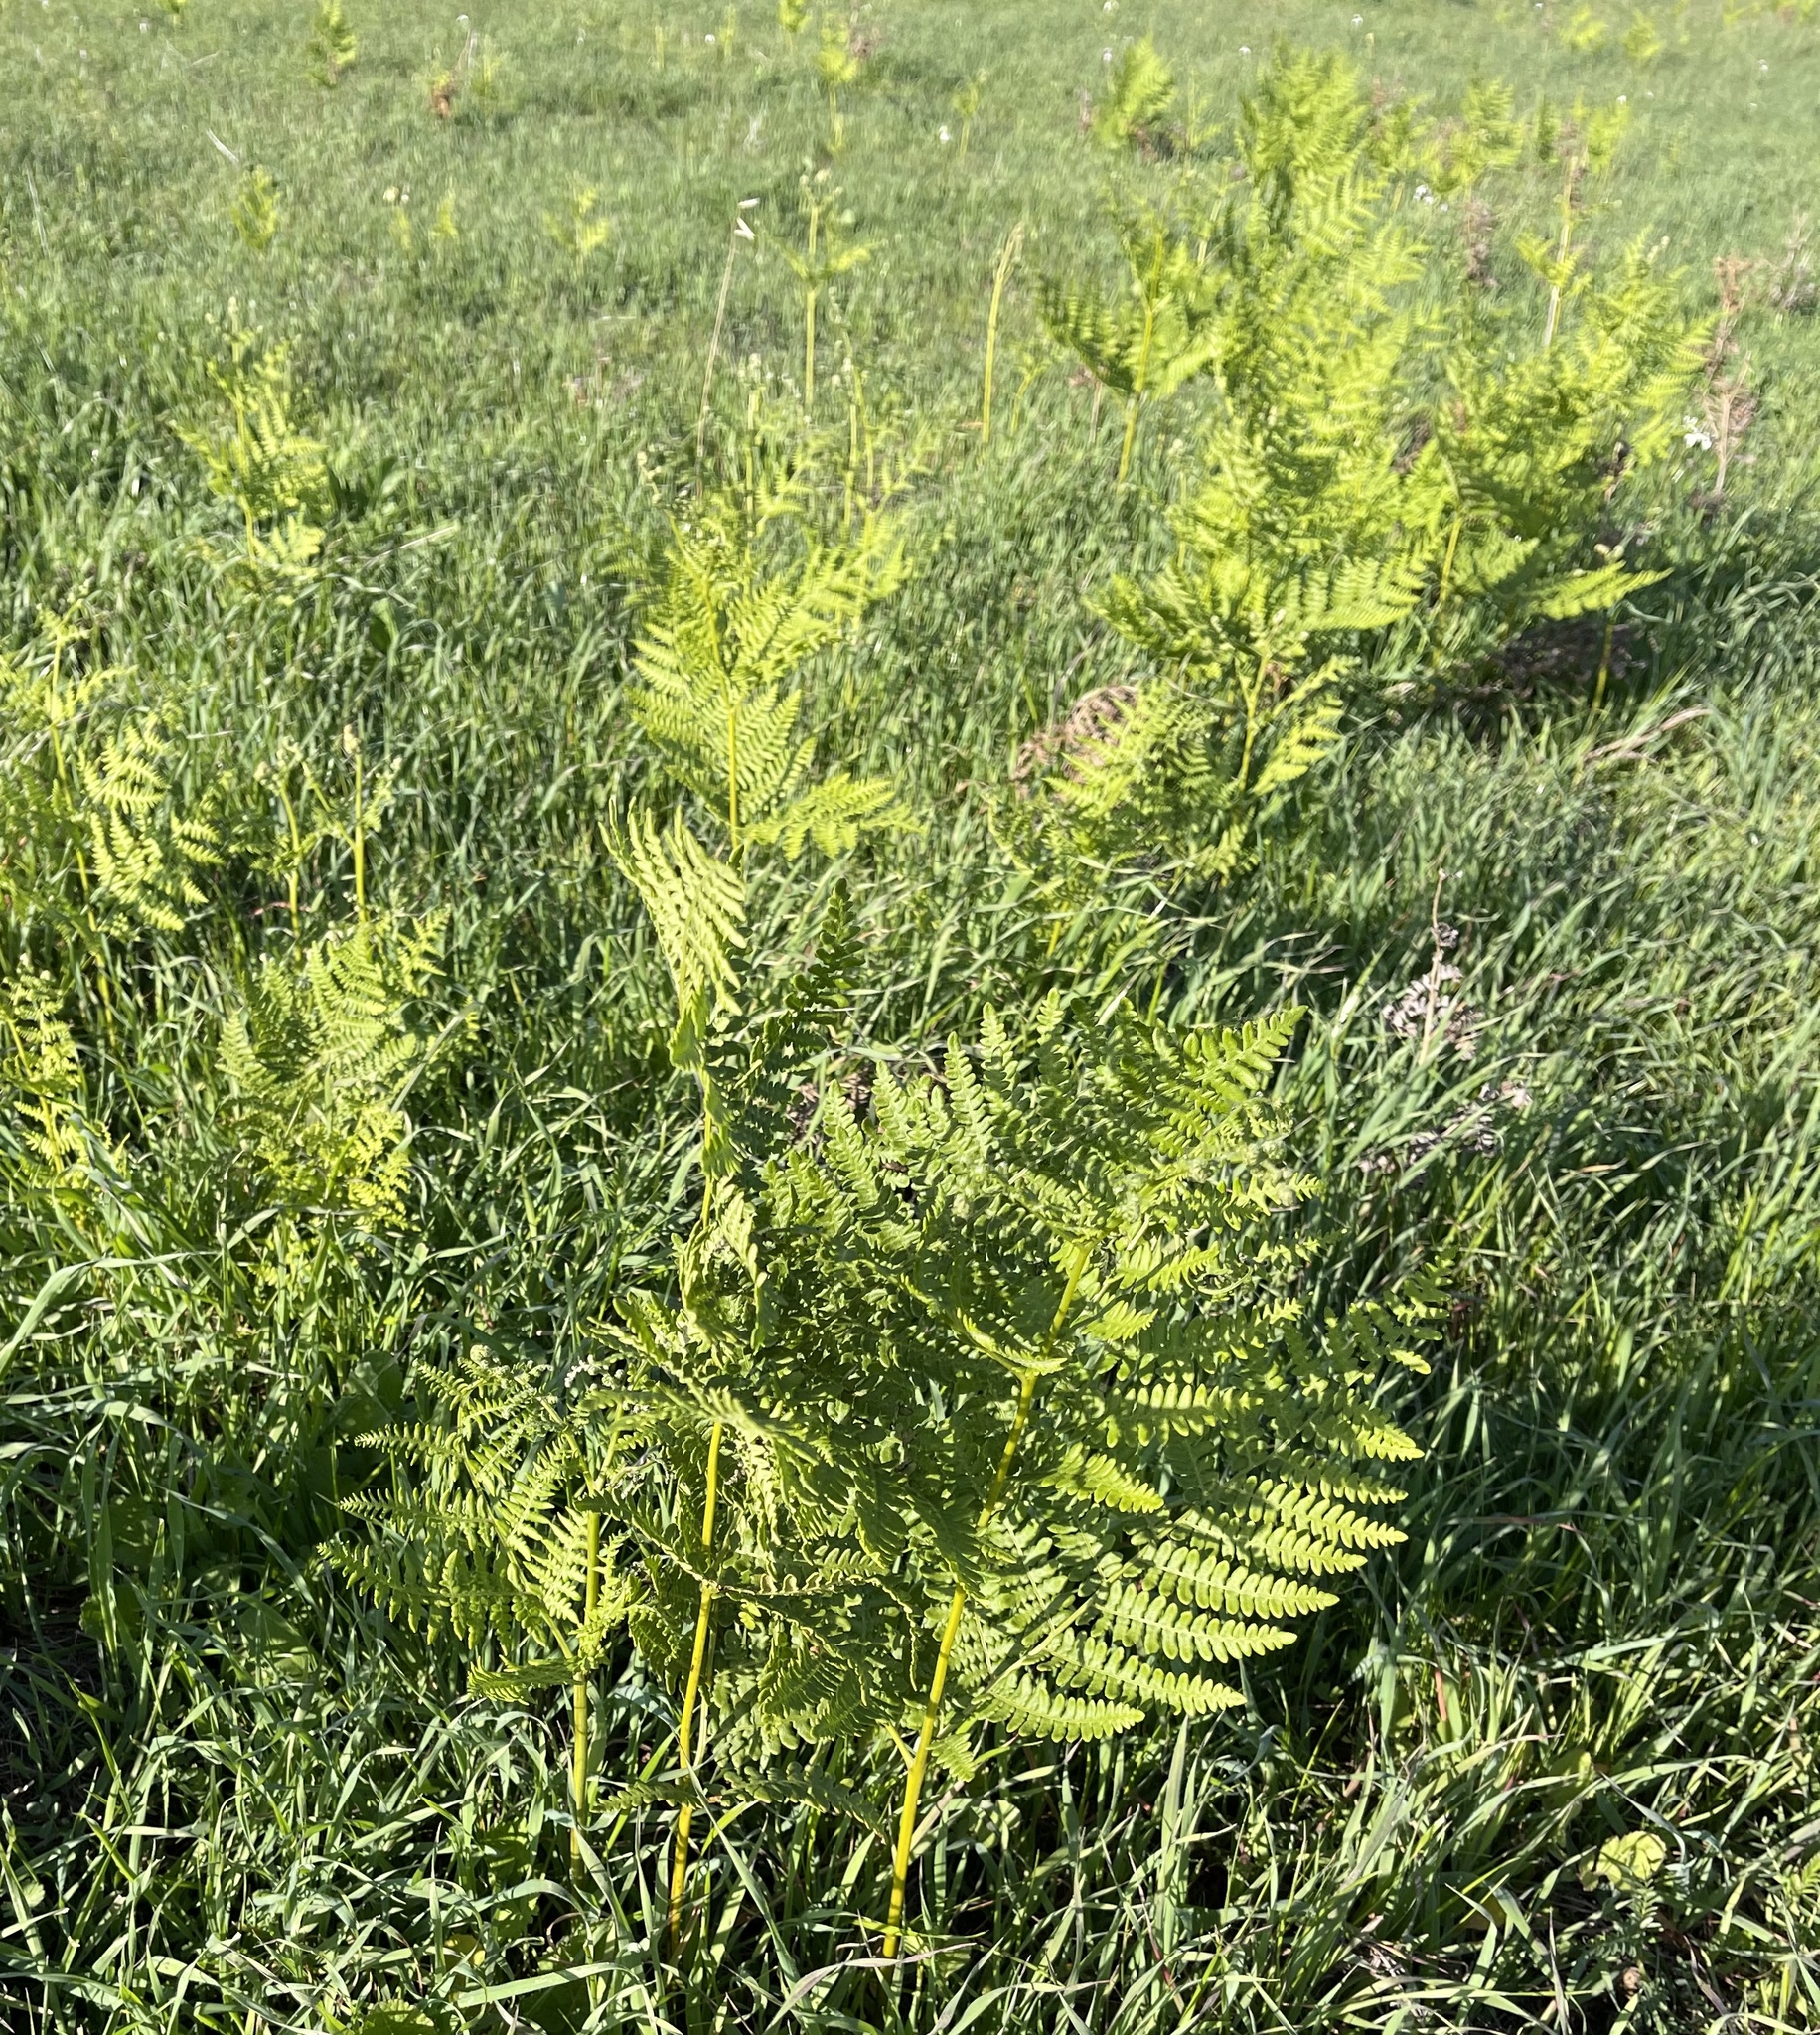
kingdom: Plantae
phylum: Tracheophyta
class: Polypodiopsida
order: Polypodiales
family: Dennstaedtiaceae
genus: Pteridium
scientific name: Pteridium aquilinum
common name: Bracken
